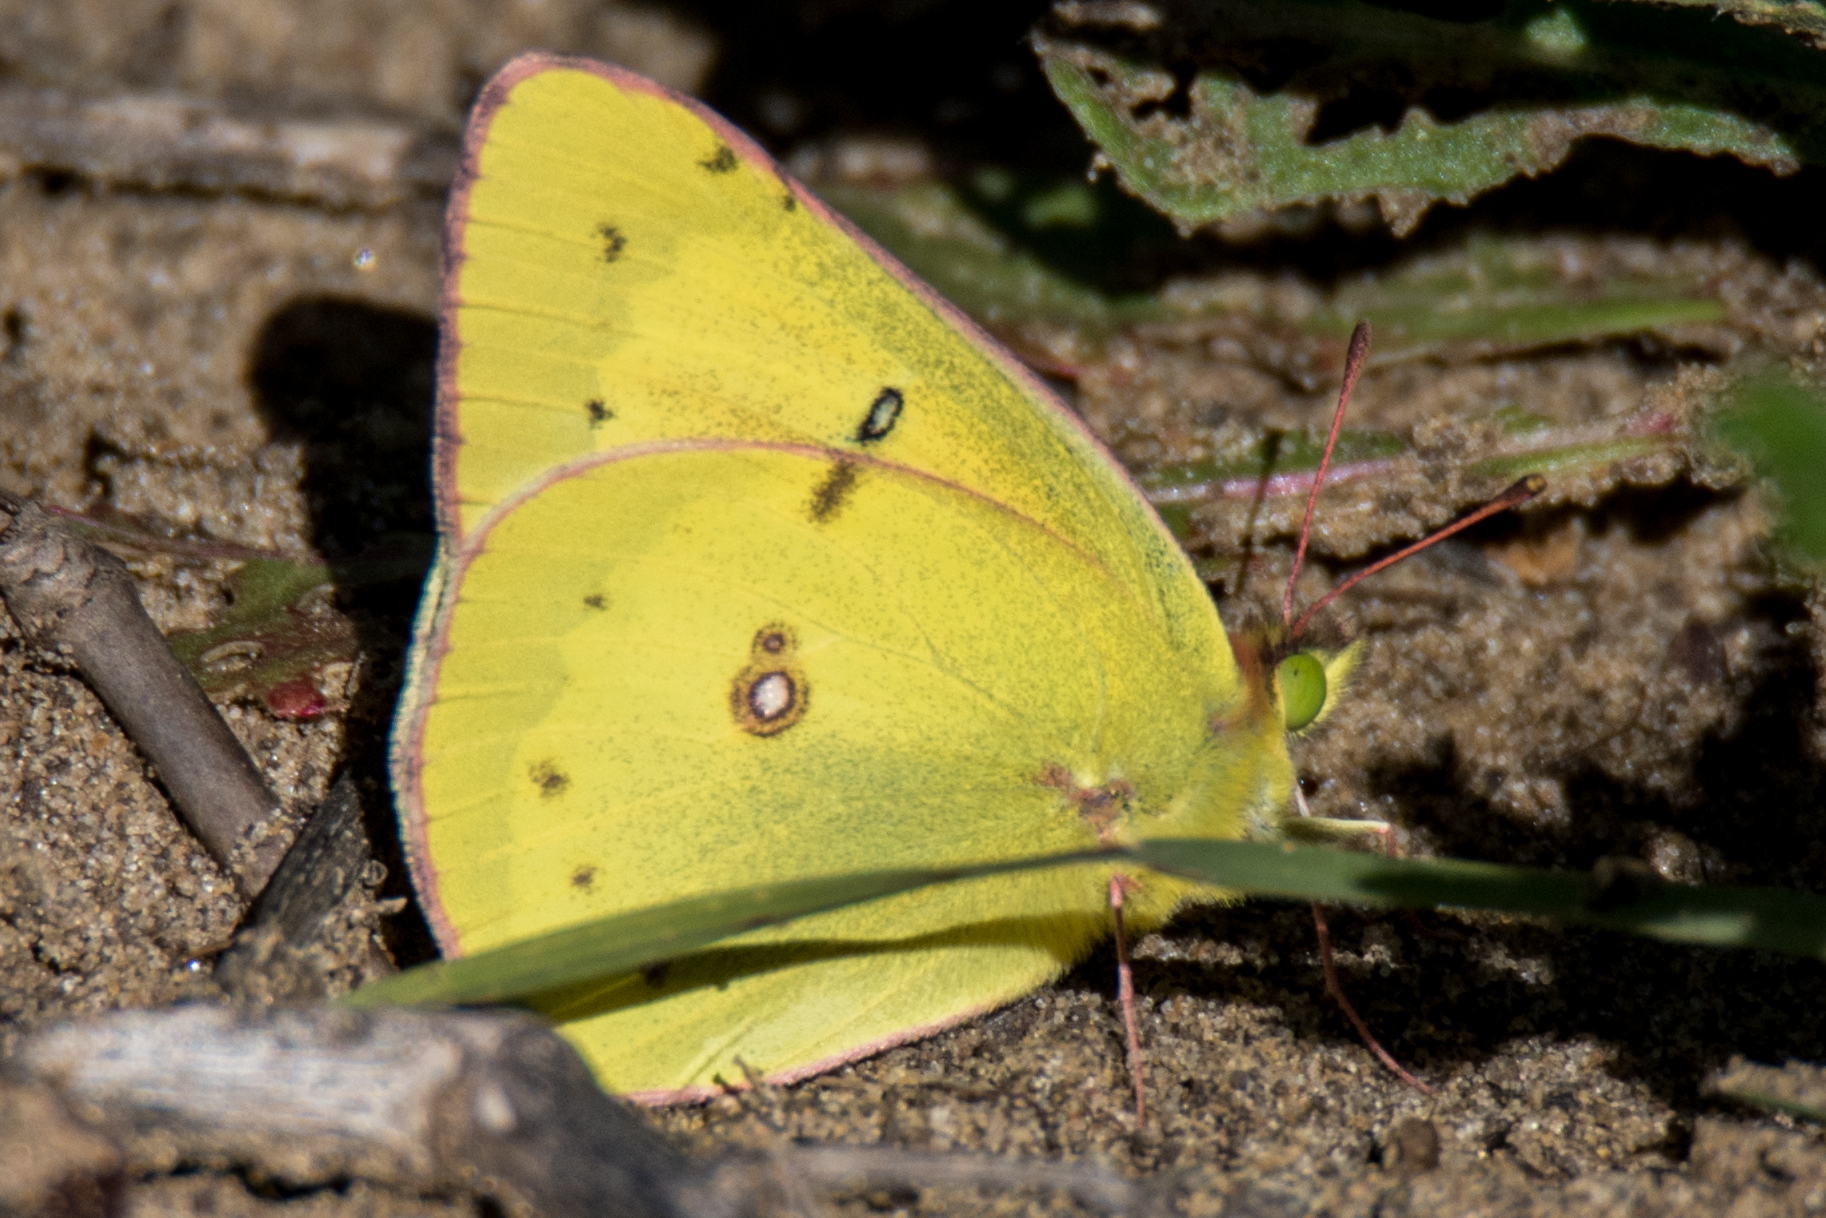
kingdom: Animalia
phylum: Arthropoda
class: Insecta
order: Lepidoptera
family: Pieridae
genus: Colias
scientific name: Colias eurytheme
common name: Alfalfa butterfly
